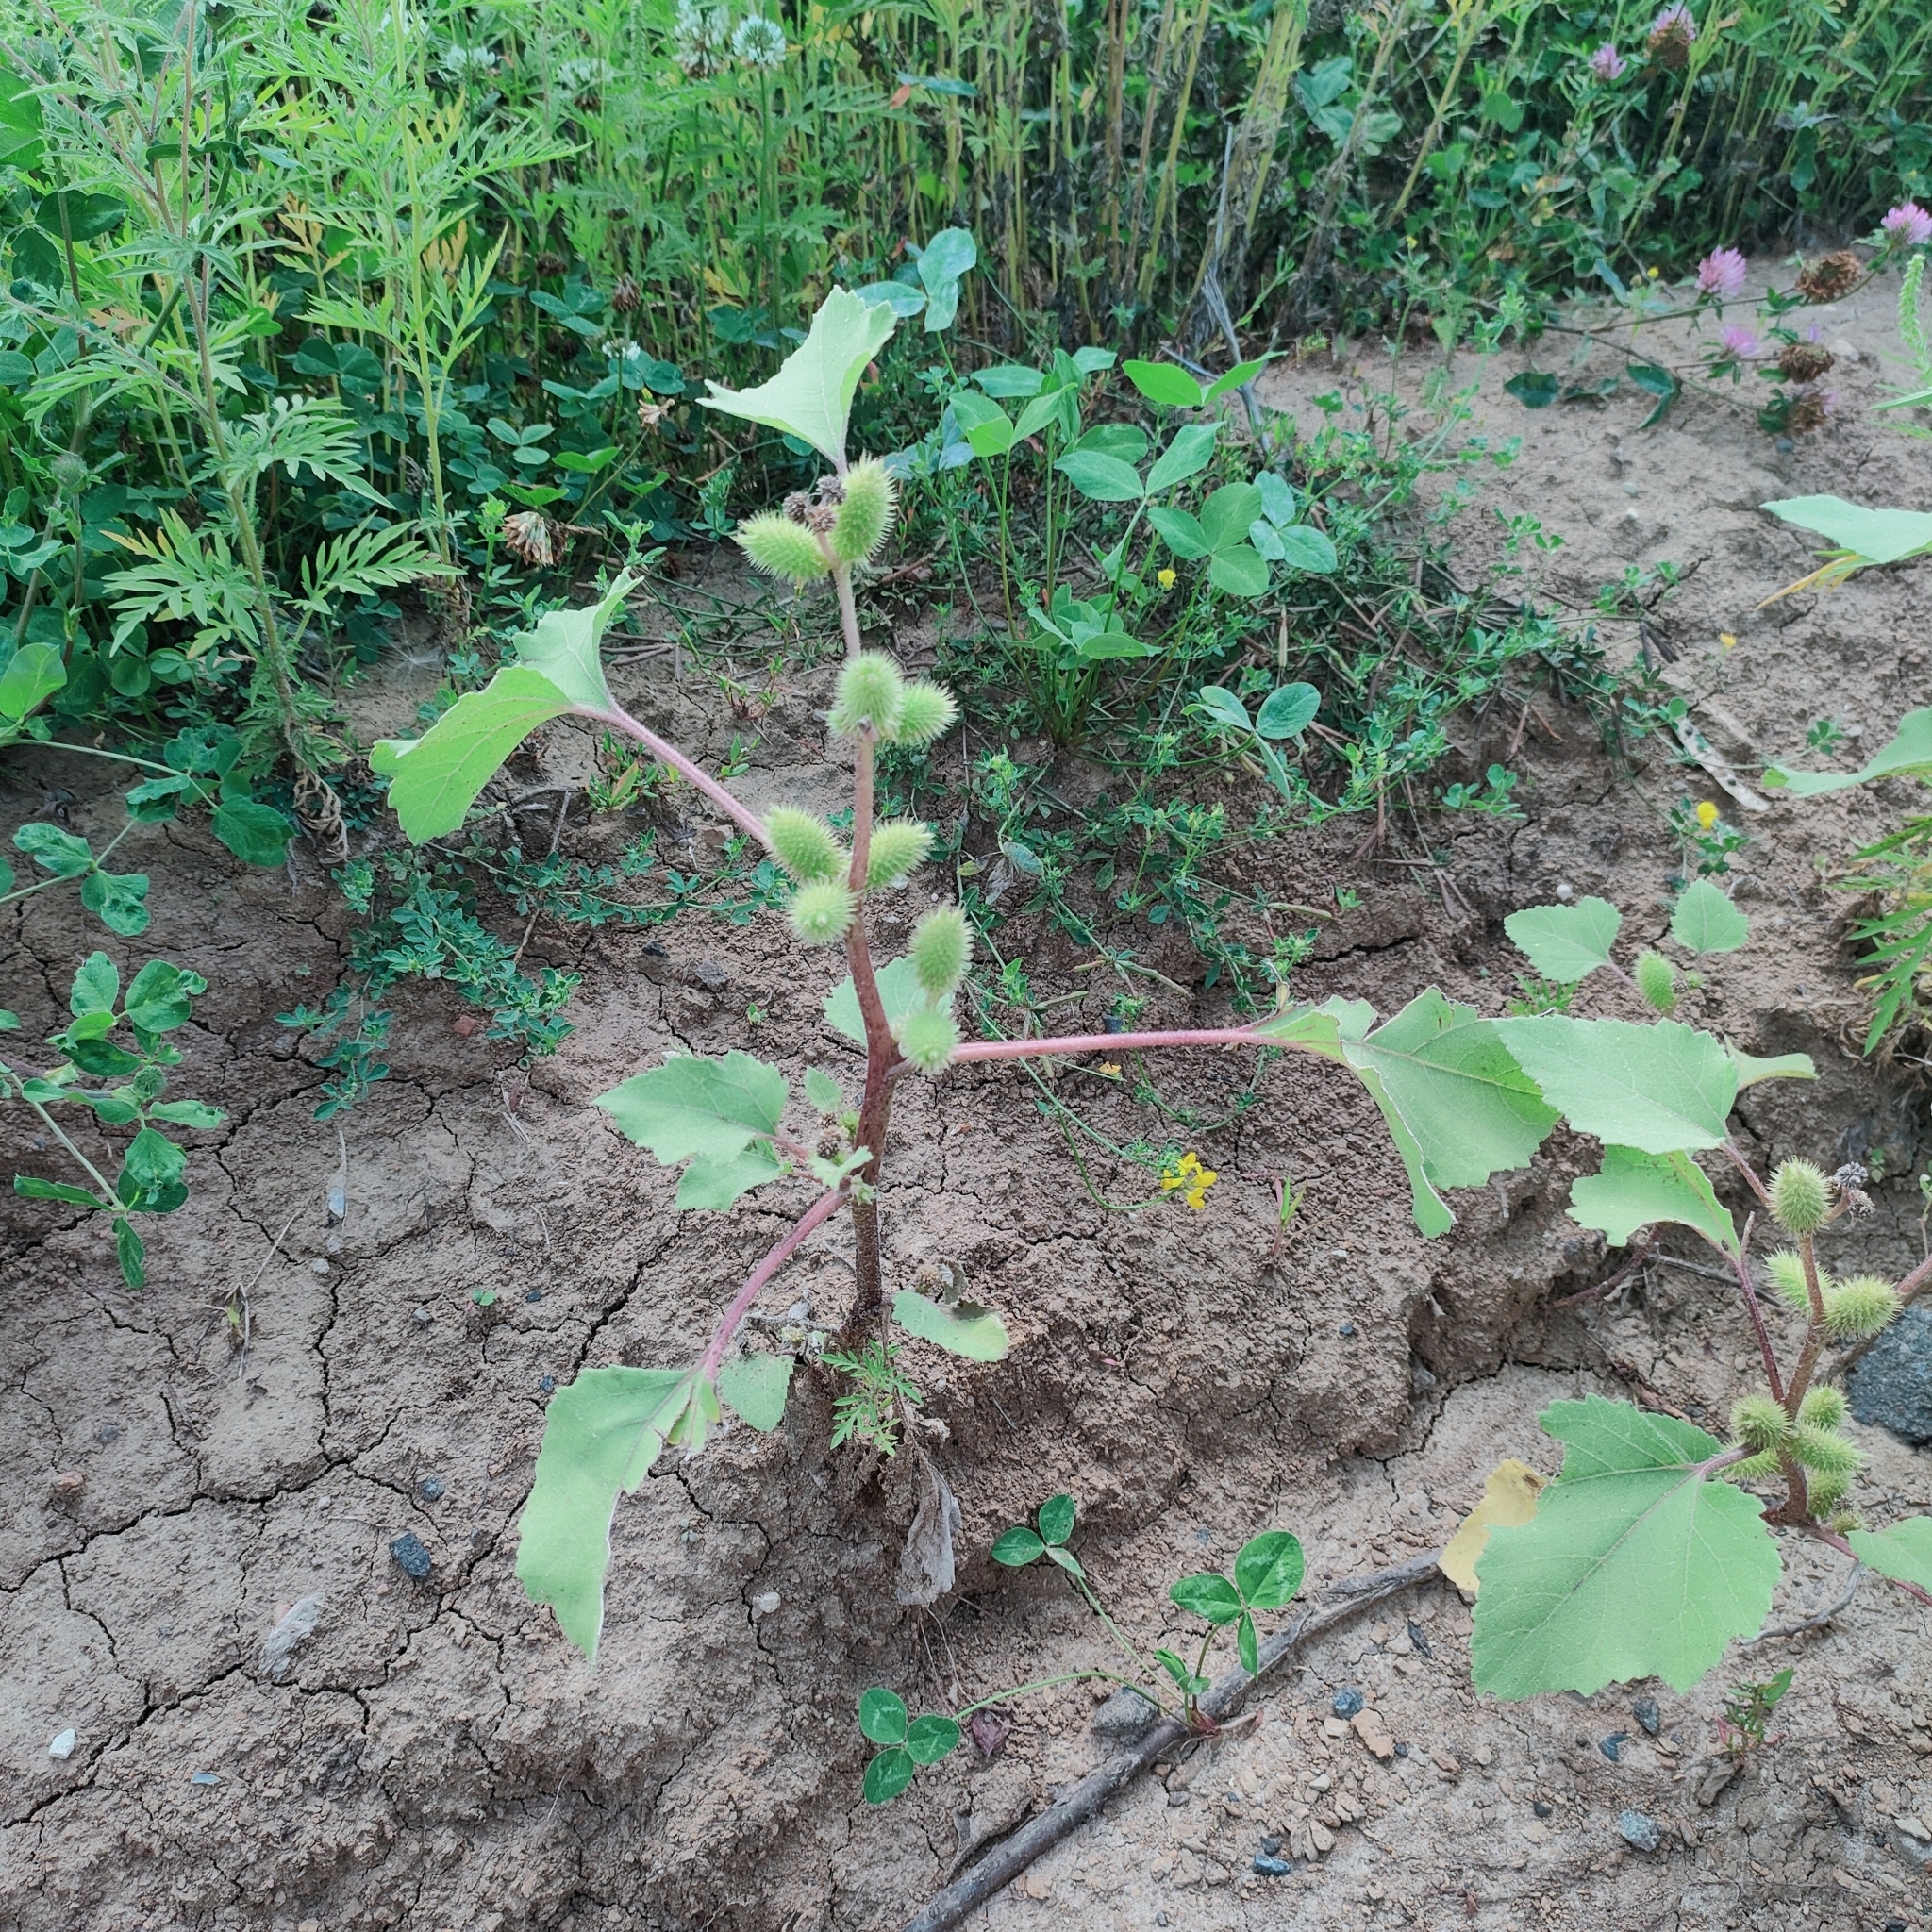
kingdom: Plantae
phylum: Tracheophyta
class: Magnoliopsida
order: Asterales
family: Asteraceae
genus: Xanthium
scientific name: Xanthium orientale
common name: Californian burr
